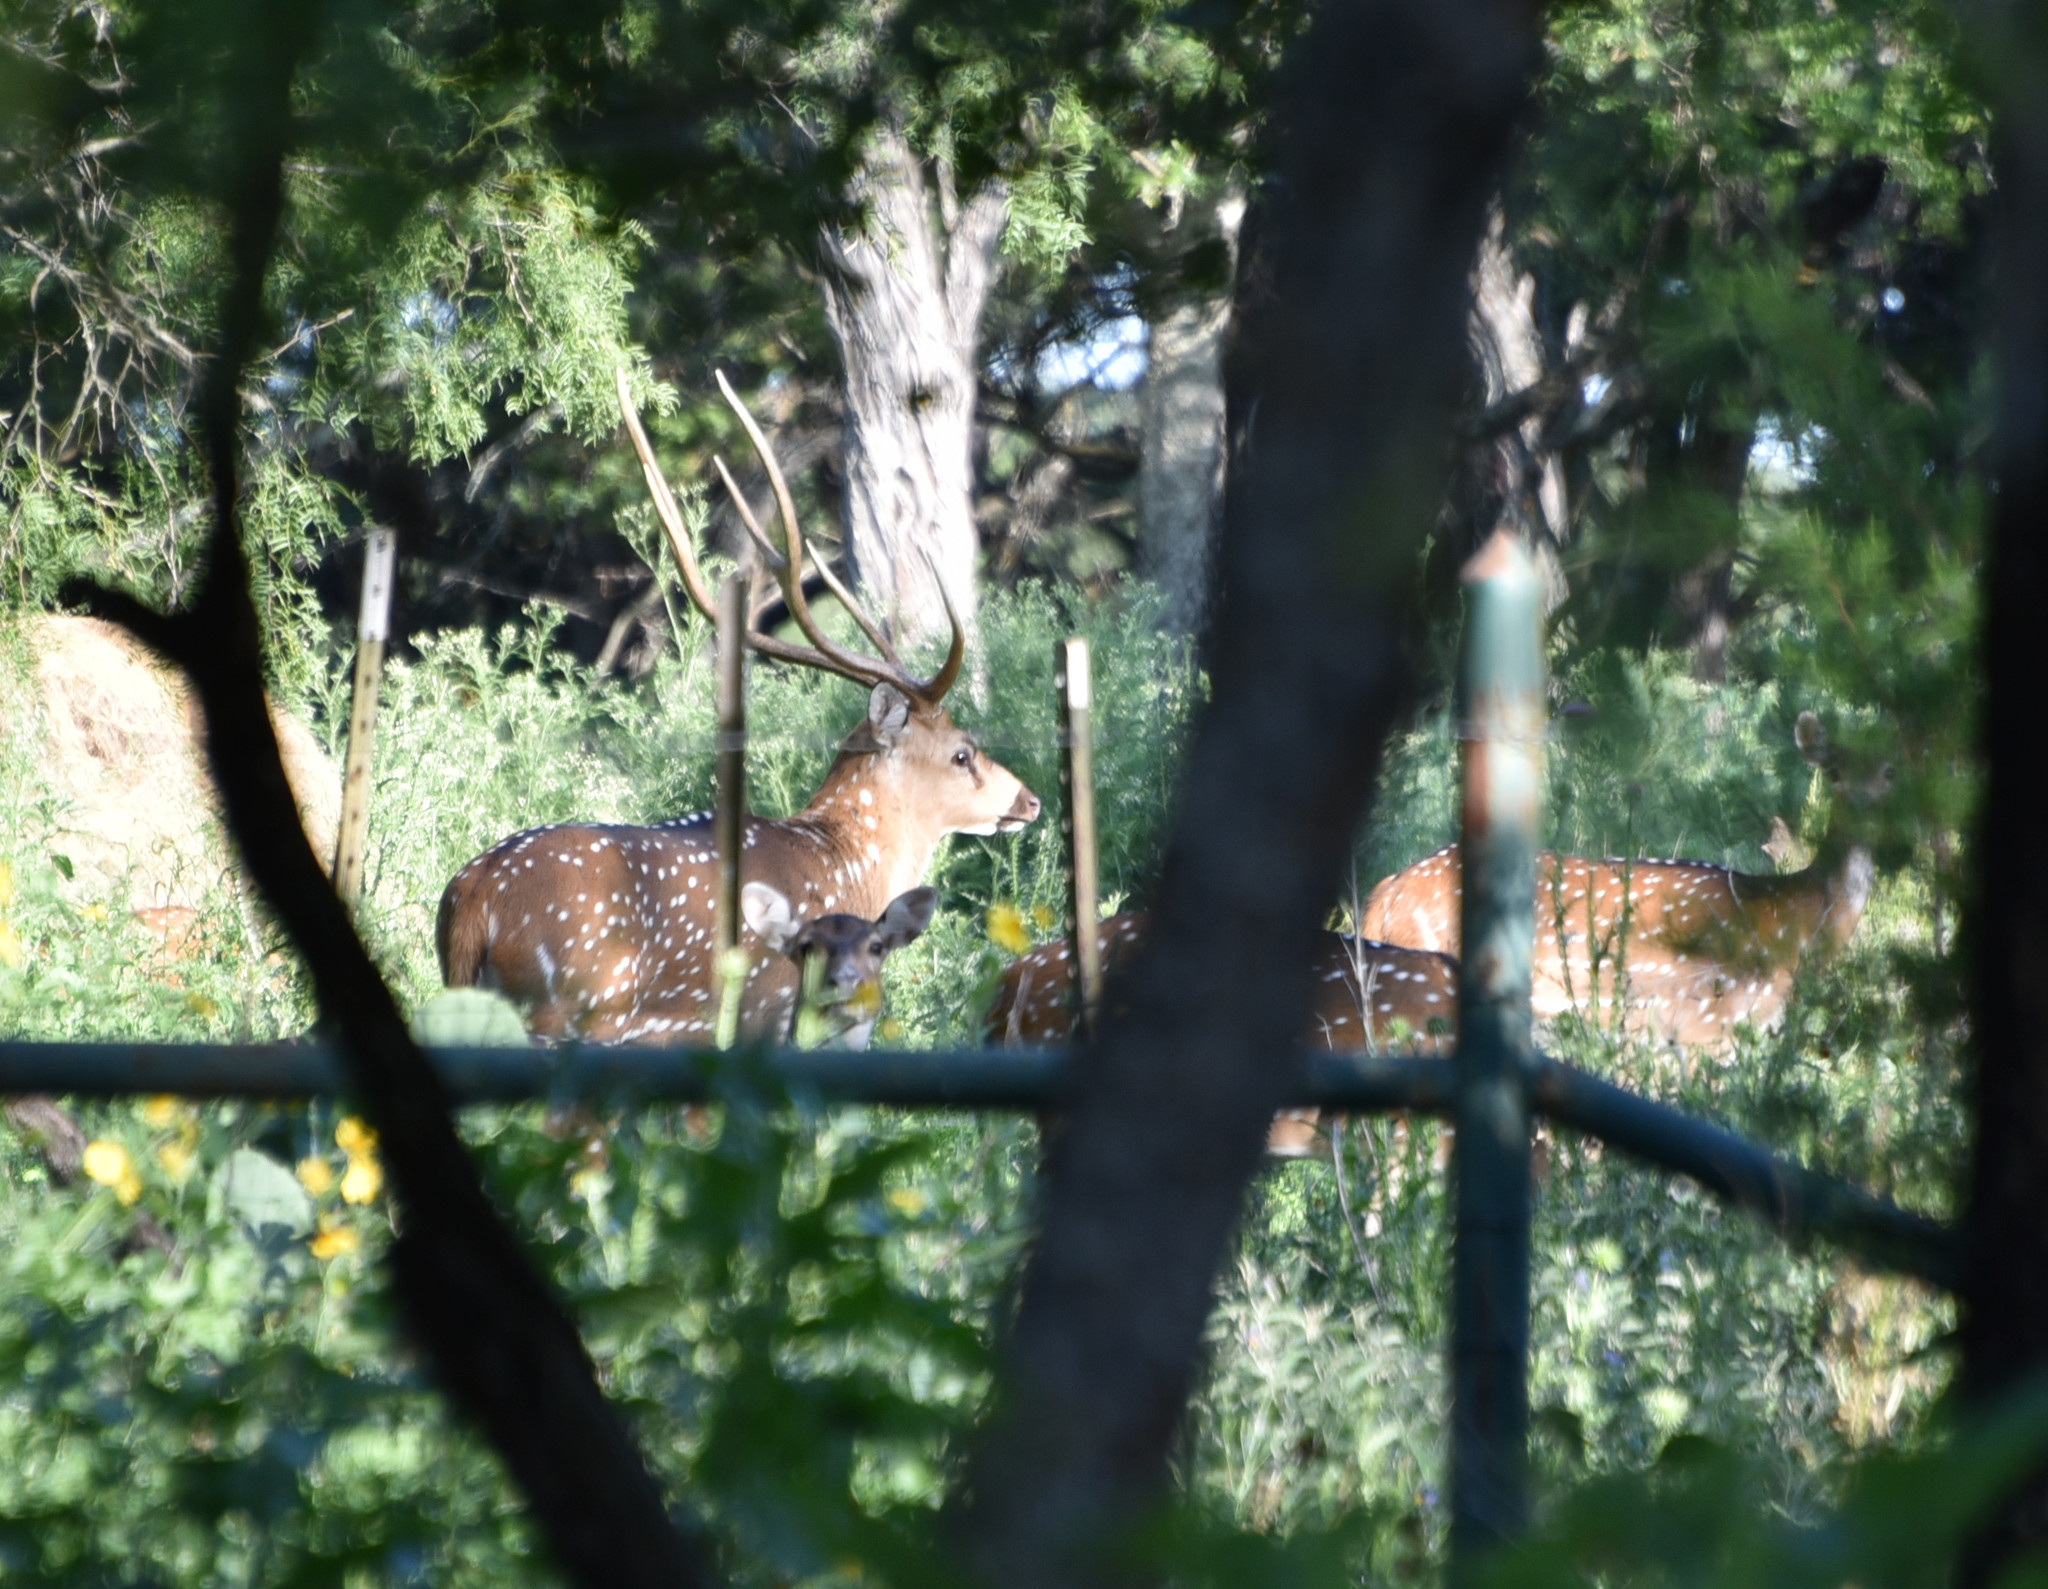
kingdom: Animalia
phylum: Chordata
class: Mammalia
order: Artiodactyla
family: Cervidae
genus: Axis
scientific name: Axis axis
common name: Chital
